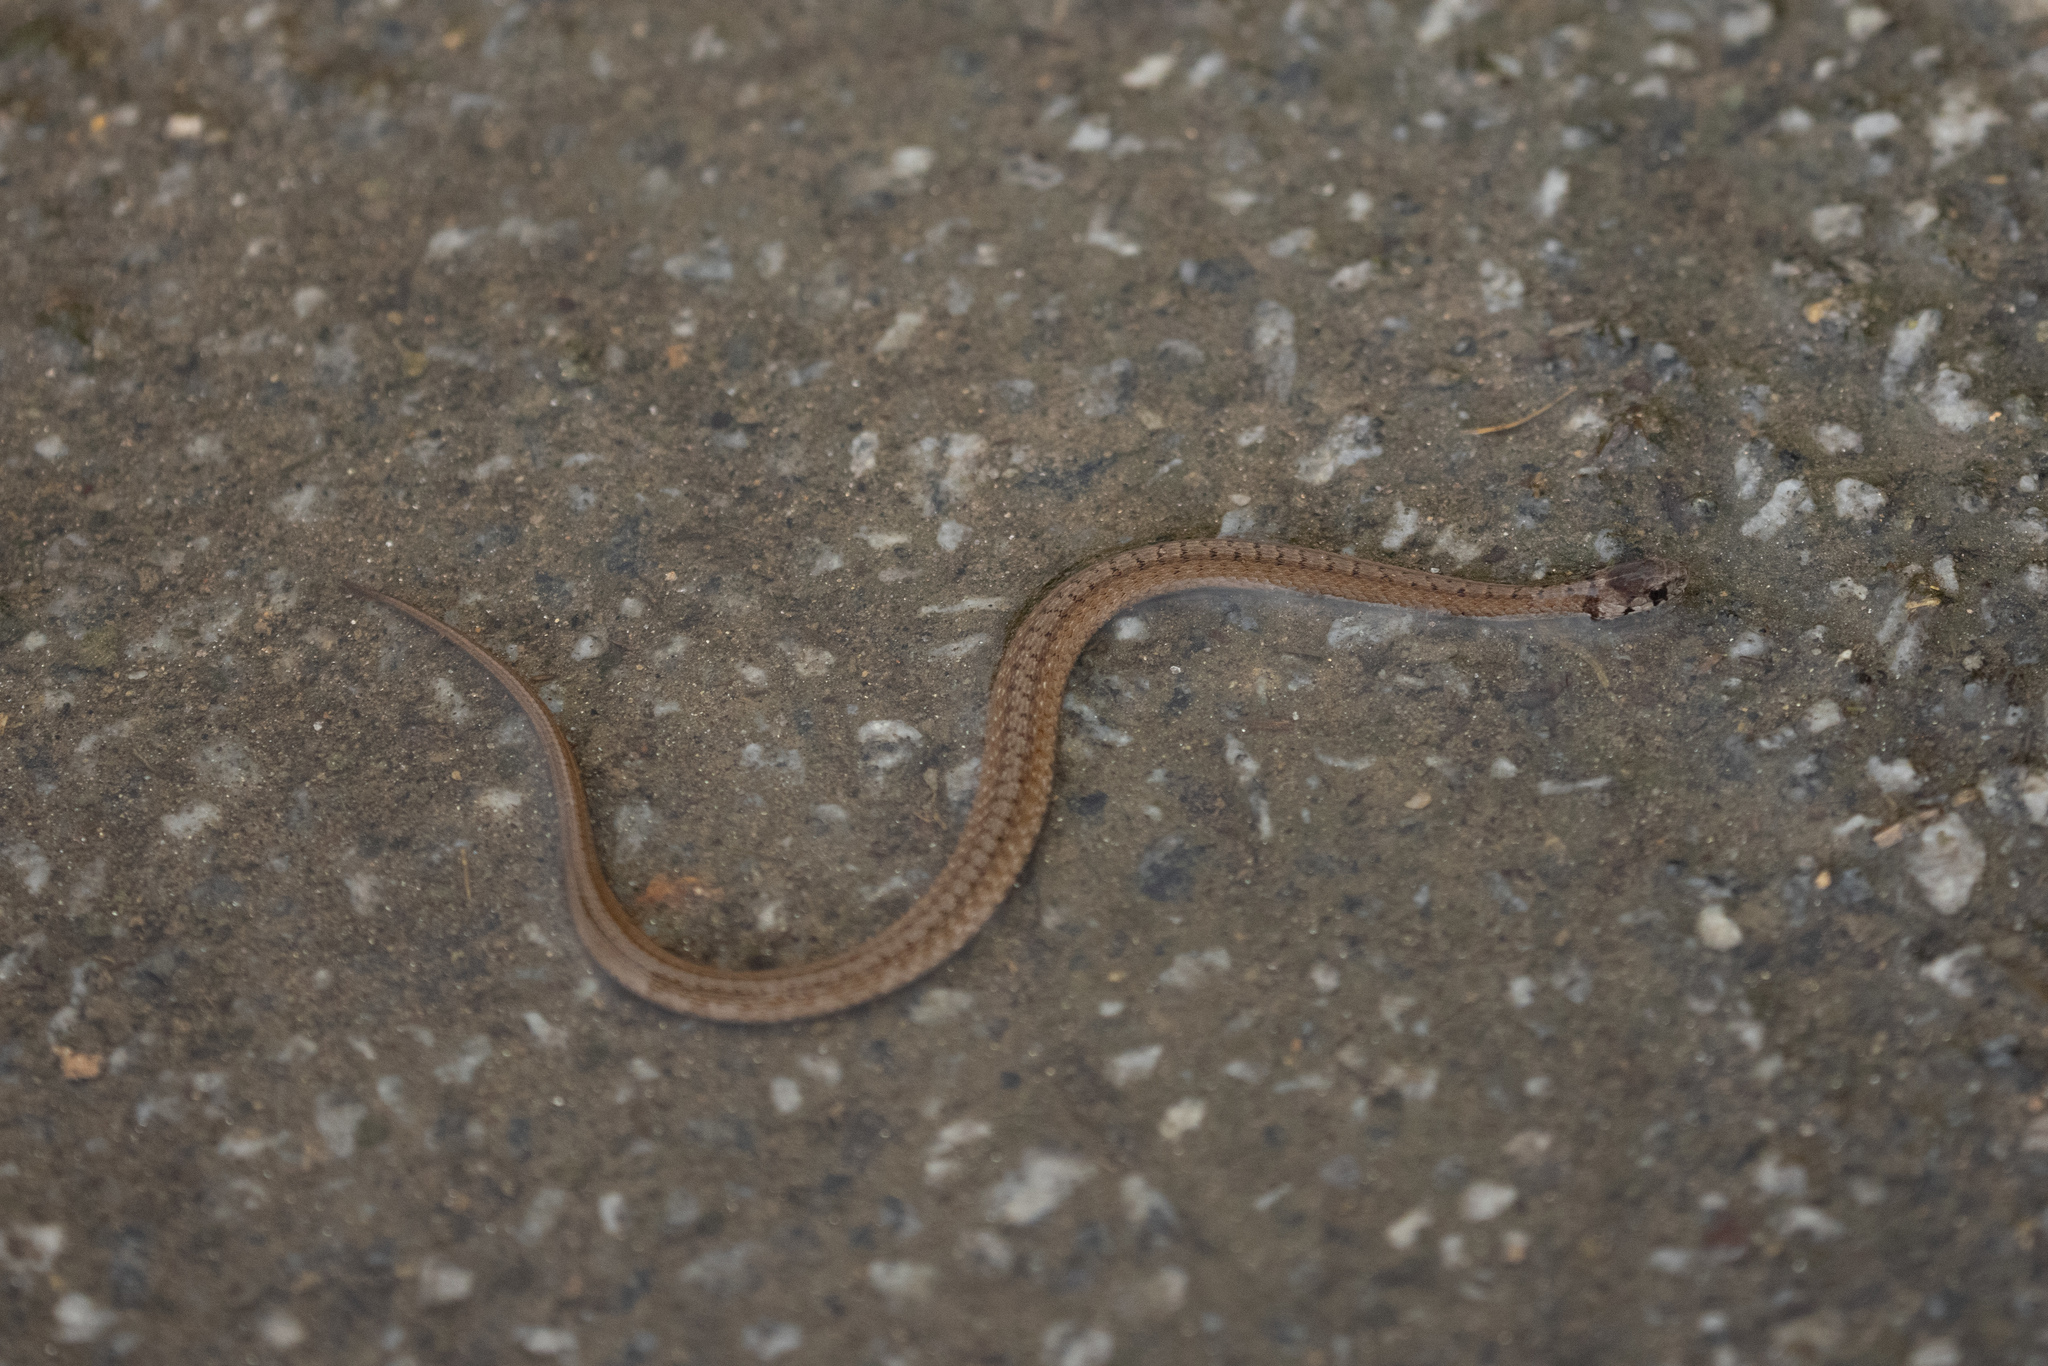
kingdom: Animalia
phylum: Chordata
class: Squamata
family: Colubridae
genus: Storeria
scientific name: Storeria dekayi
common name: (dekay’s) brown snake
